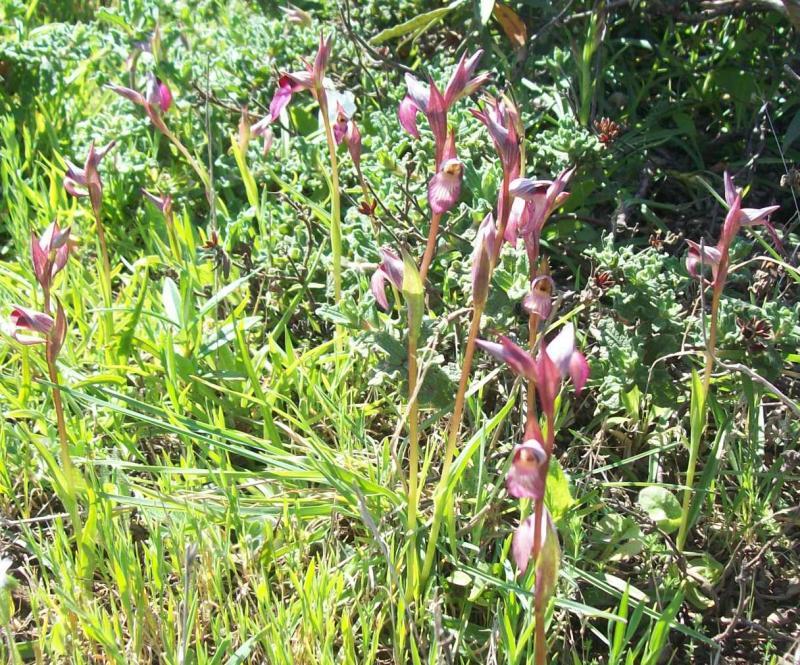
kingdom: Plantae
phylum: Tracheophyta
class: Liliopsida
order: Asparagales
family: Orchidaceae
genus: Serapias
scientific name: Serapias lingua
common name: Tongue-orchid
